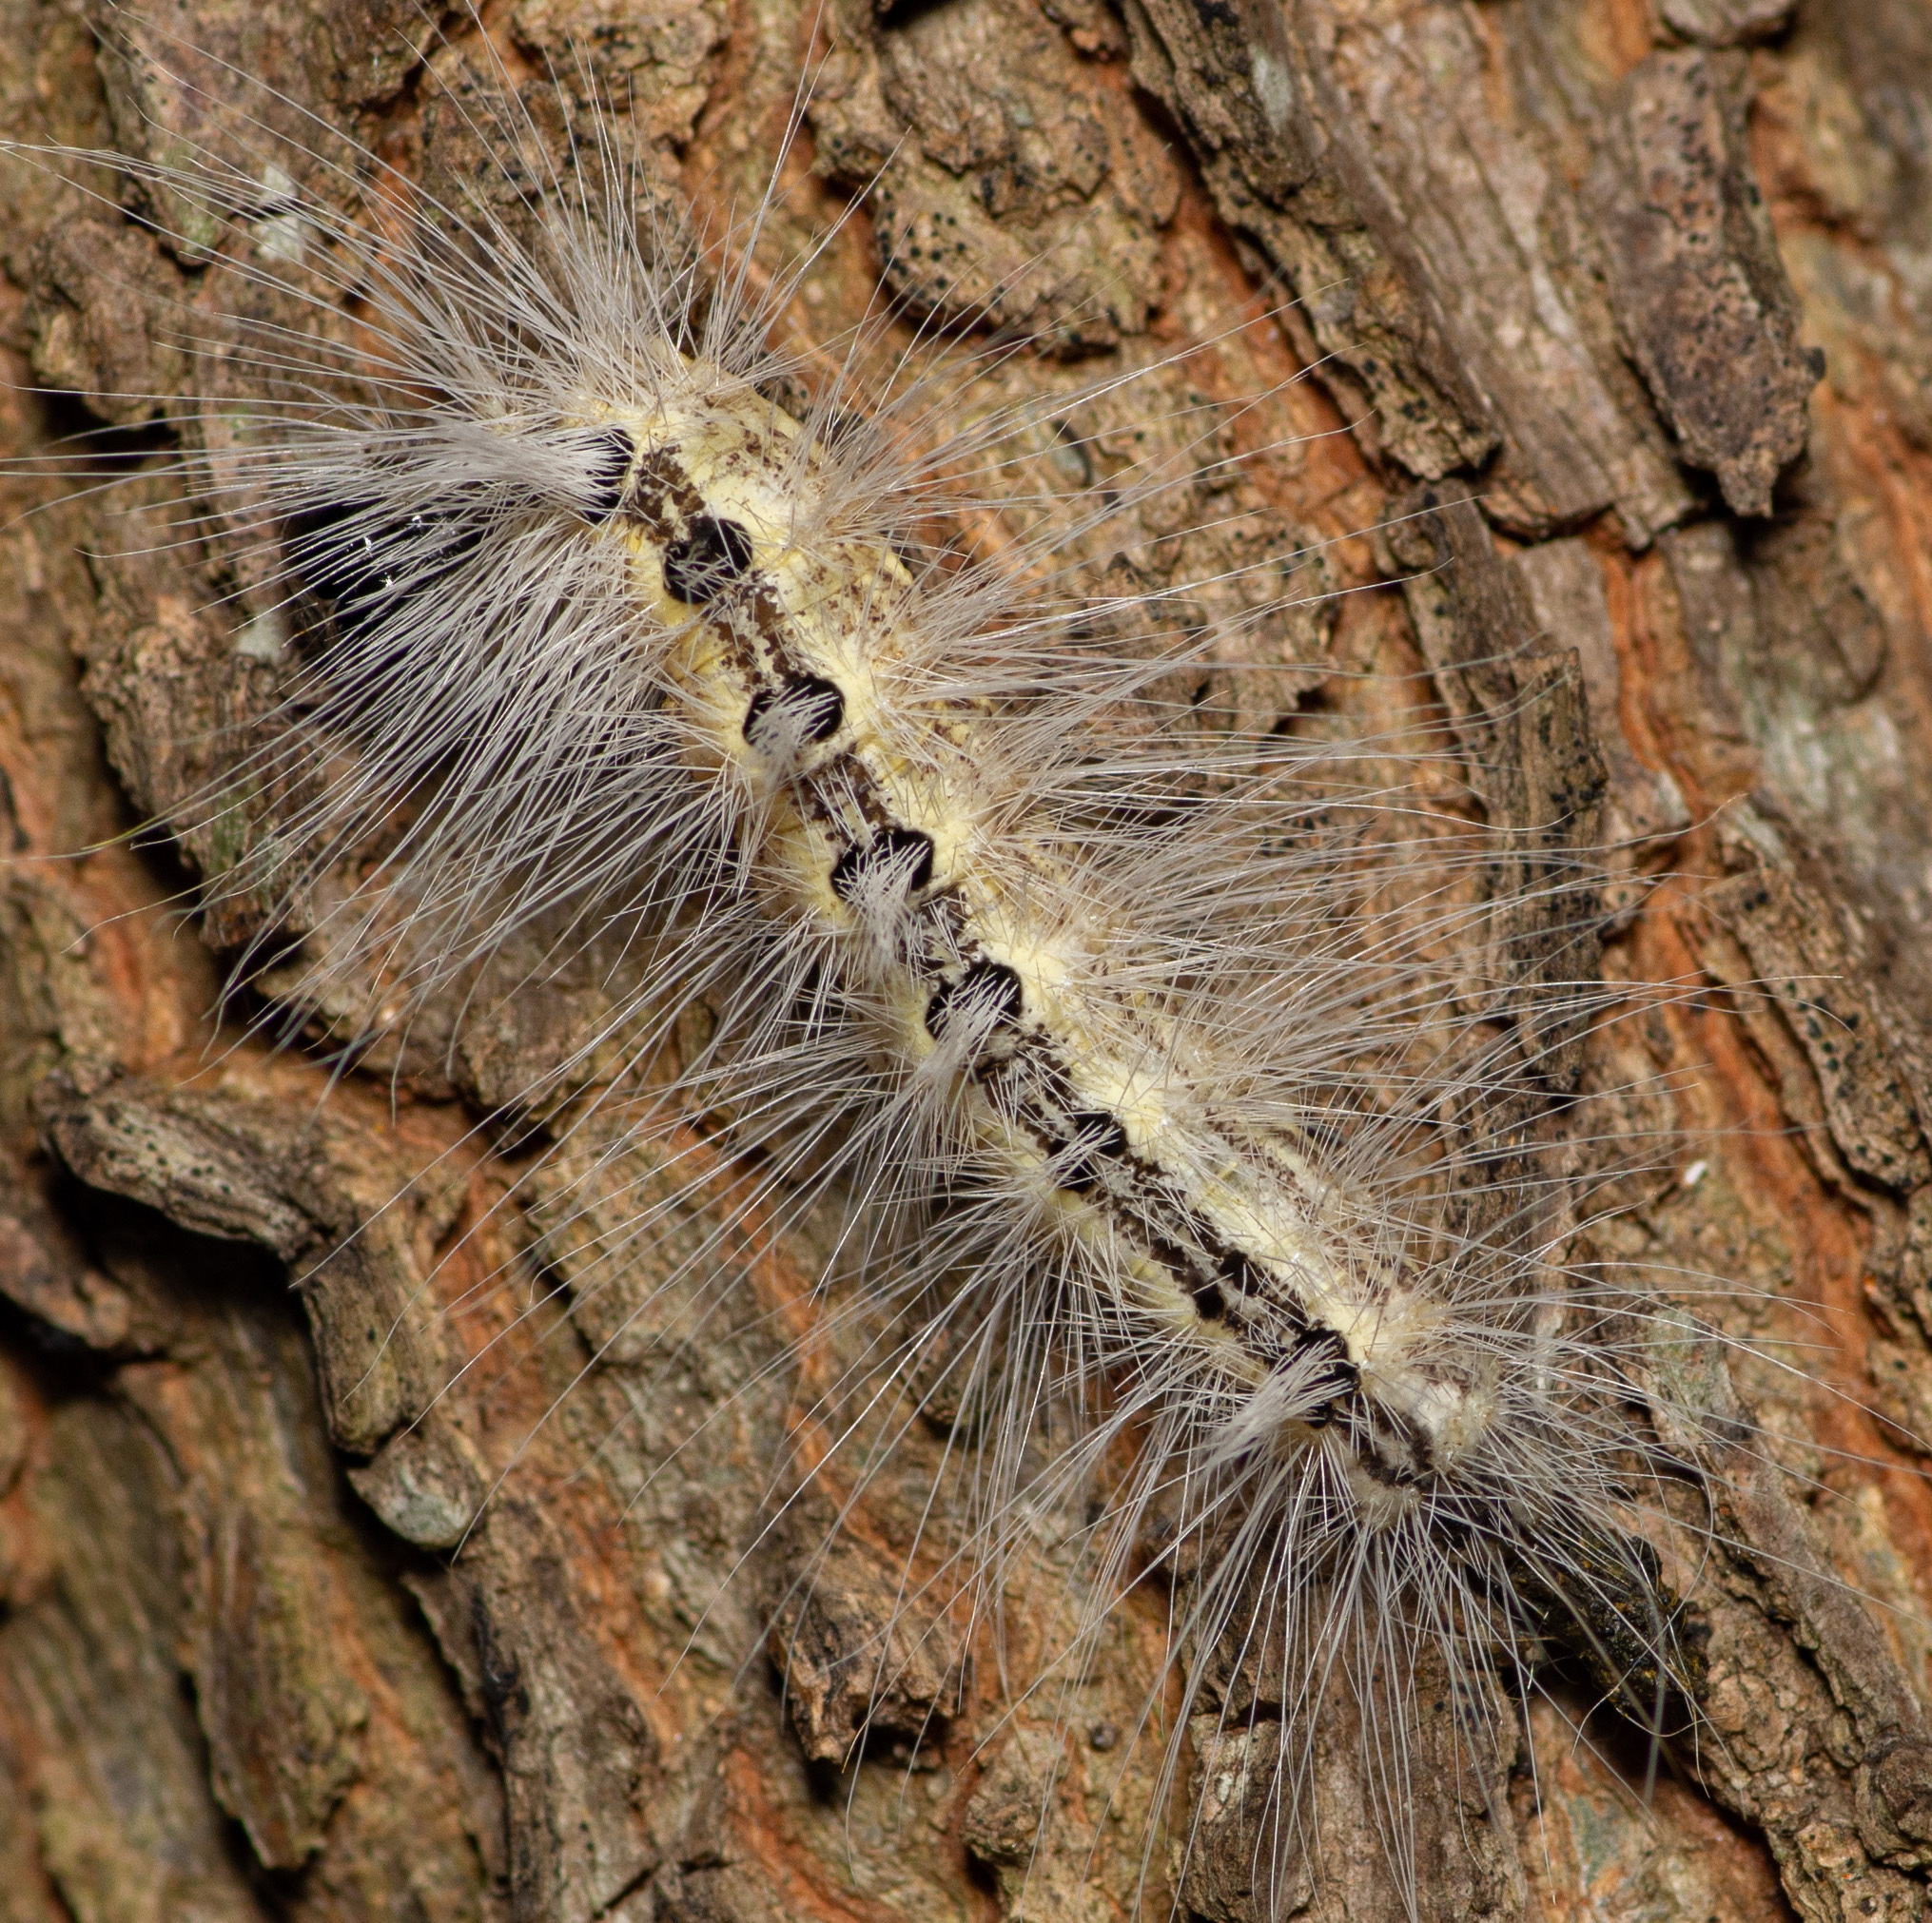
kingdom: Animalia
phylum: Arthropoda
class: Insecta
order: Lepidoptera
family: Noctuidae
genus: Acronicta
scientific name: Acronicta rubricoma
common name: Hackberry dagger
